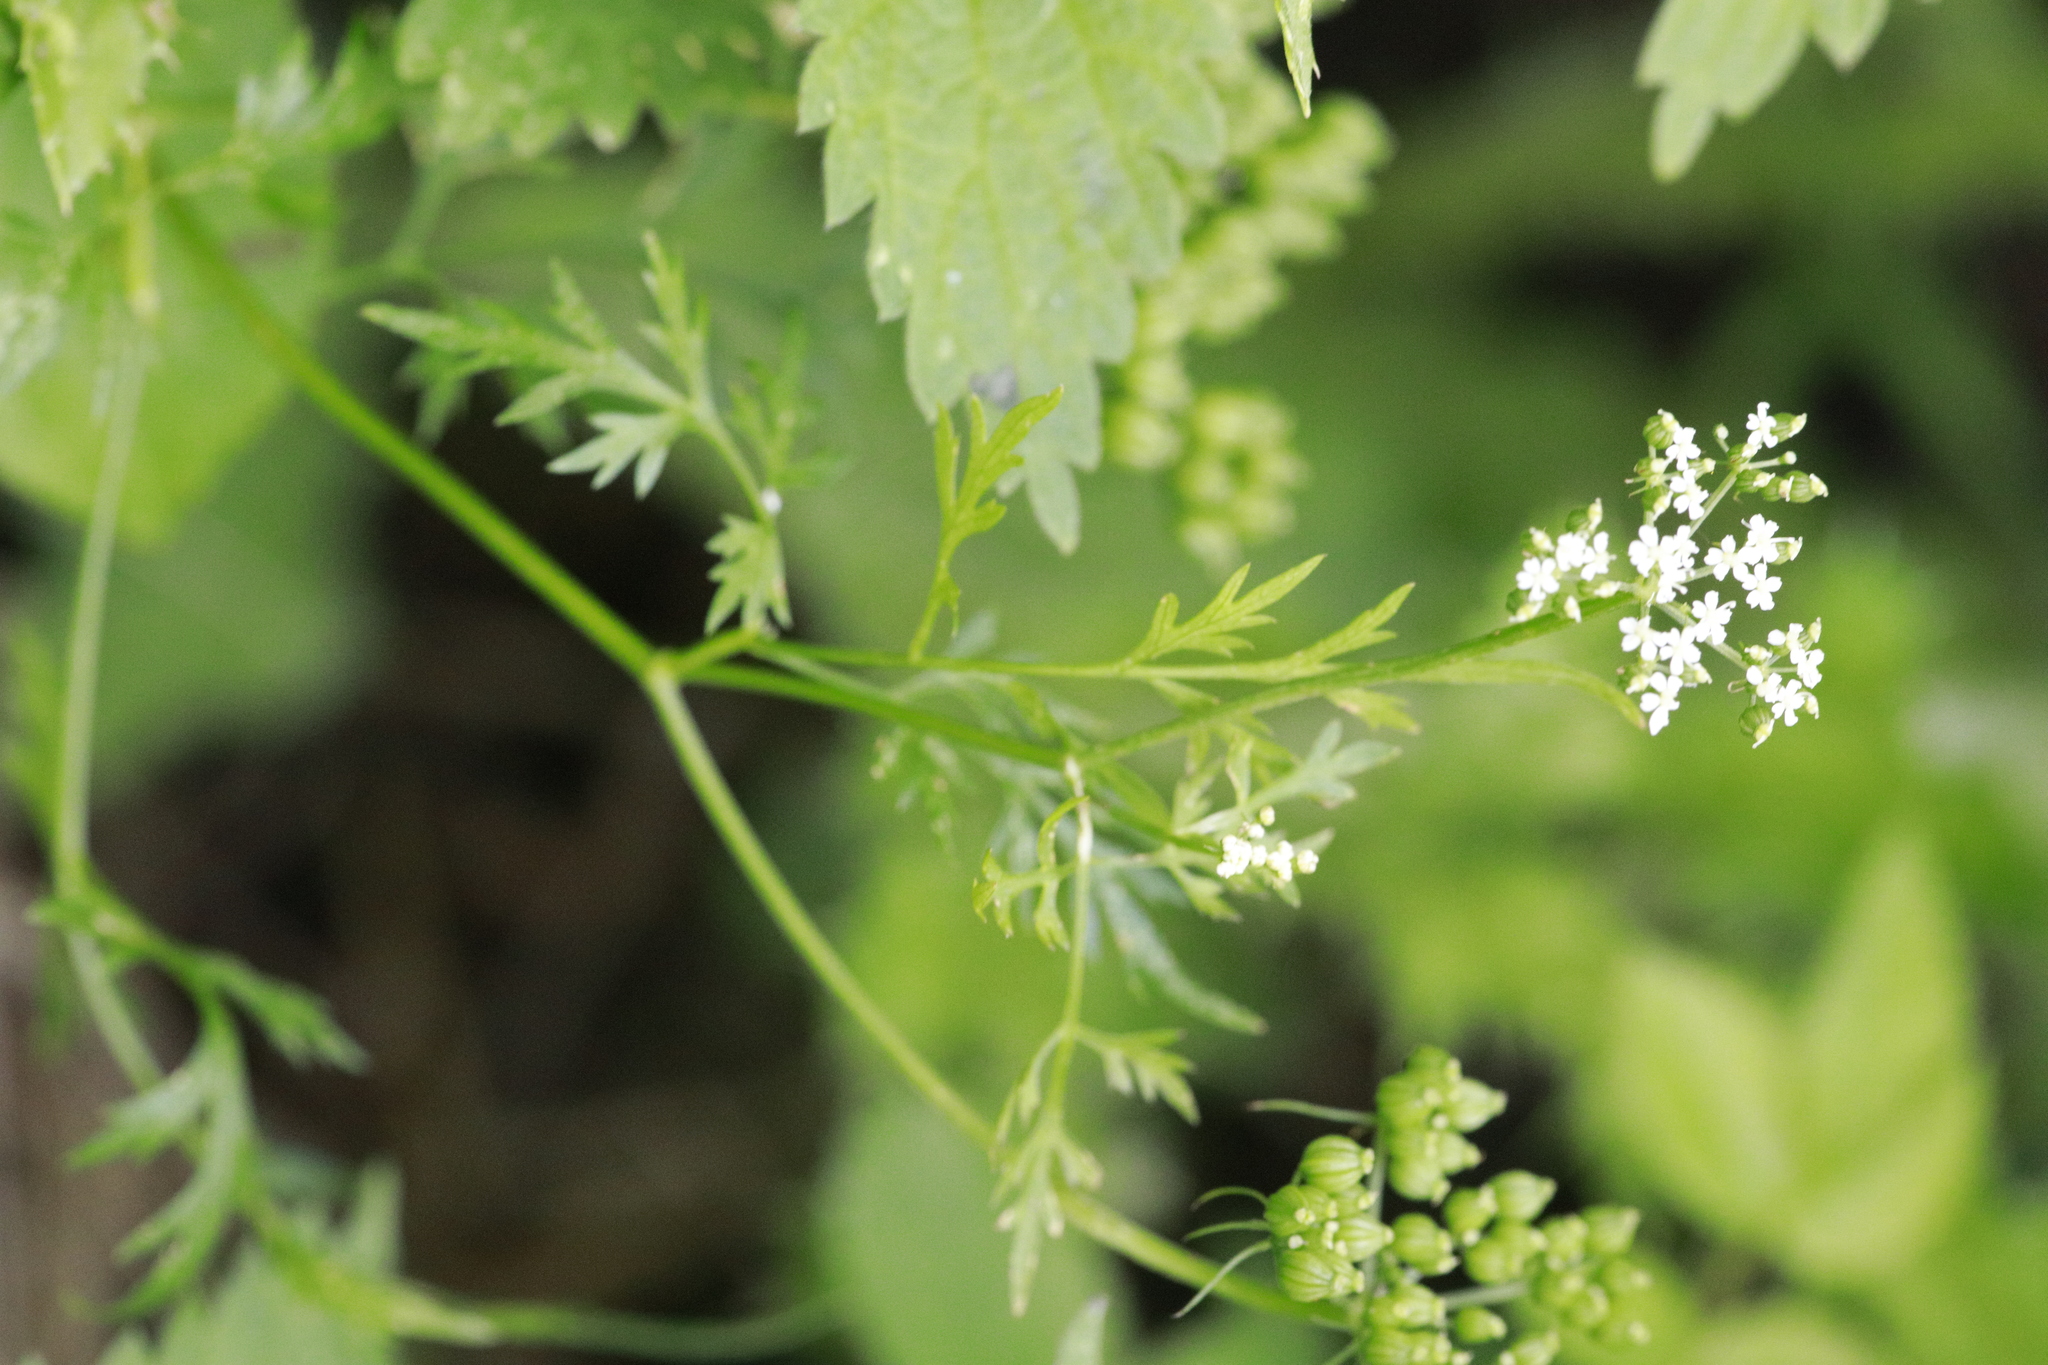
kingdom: Plantae
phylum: Tracheophyta
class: Magnoliopsida
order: Apiales
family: Apiaceae
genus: Torilis
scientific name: Torilis japonica
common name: Upright hedge-parsley
